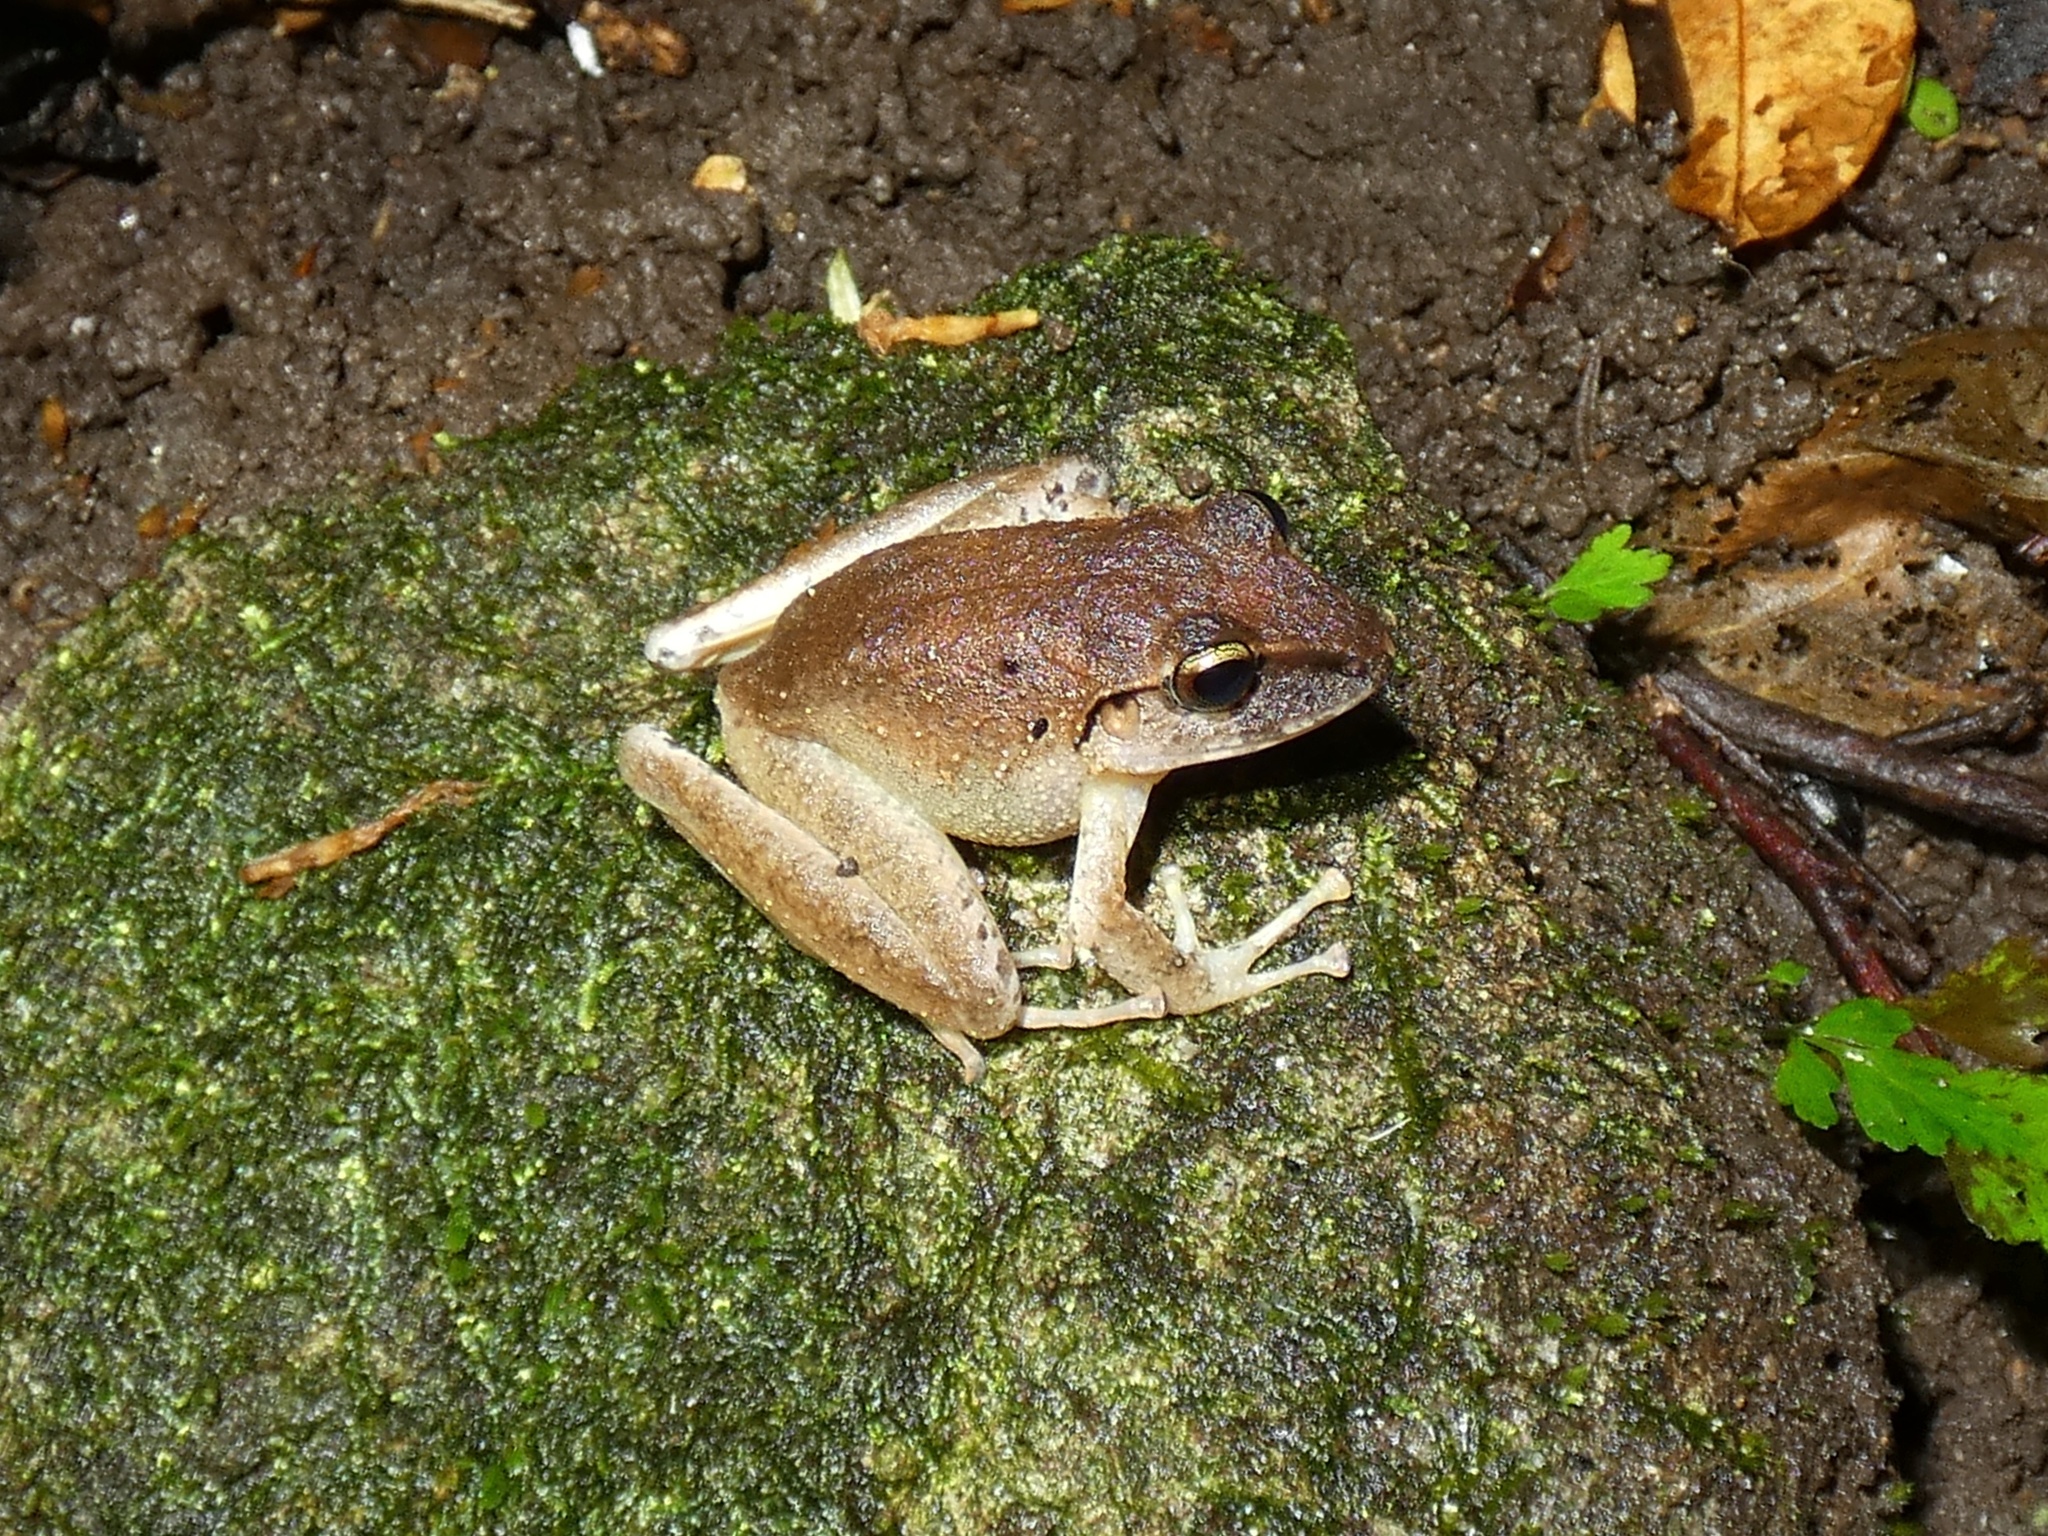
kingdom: Animalia
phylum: Chordata
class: Amphibia
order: Anura
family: Craugastoridae
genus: Craugastor
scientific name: Craugastor fitzingeri
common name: Fitzinger's robber frog
